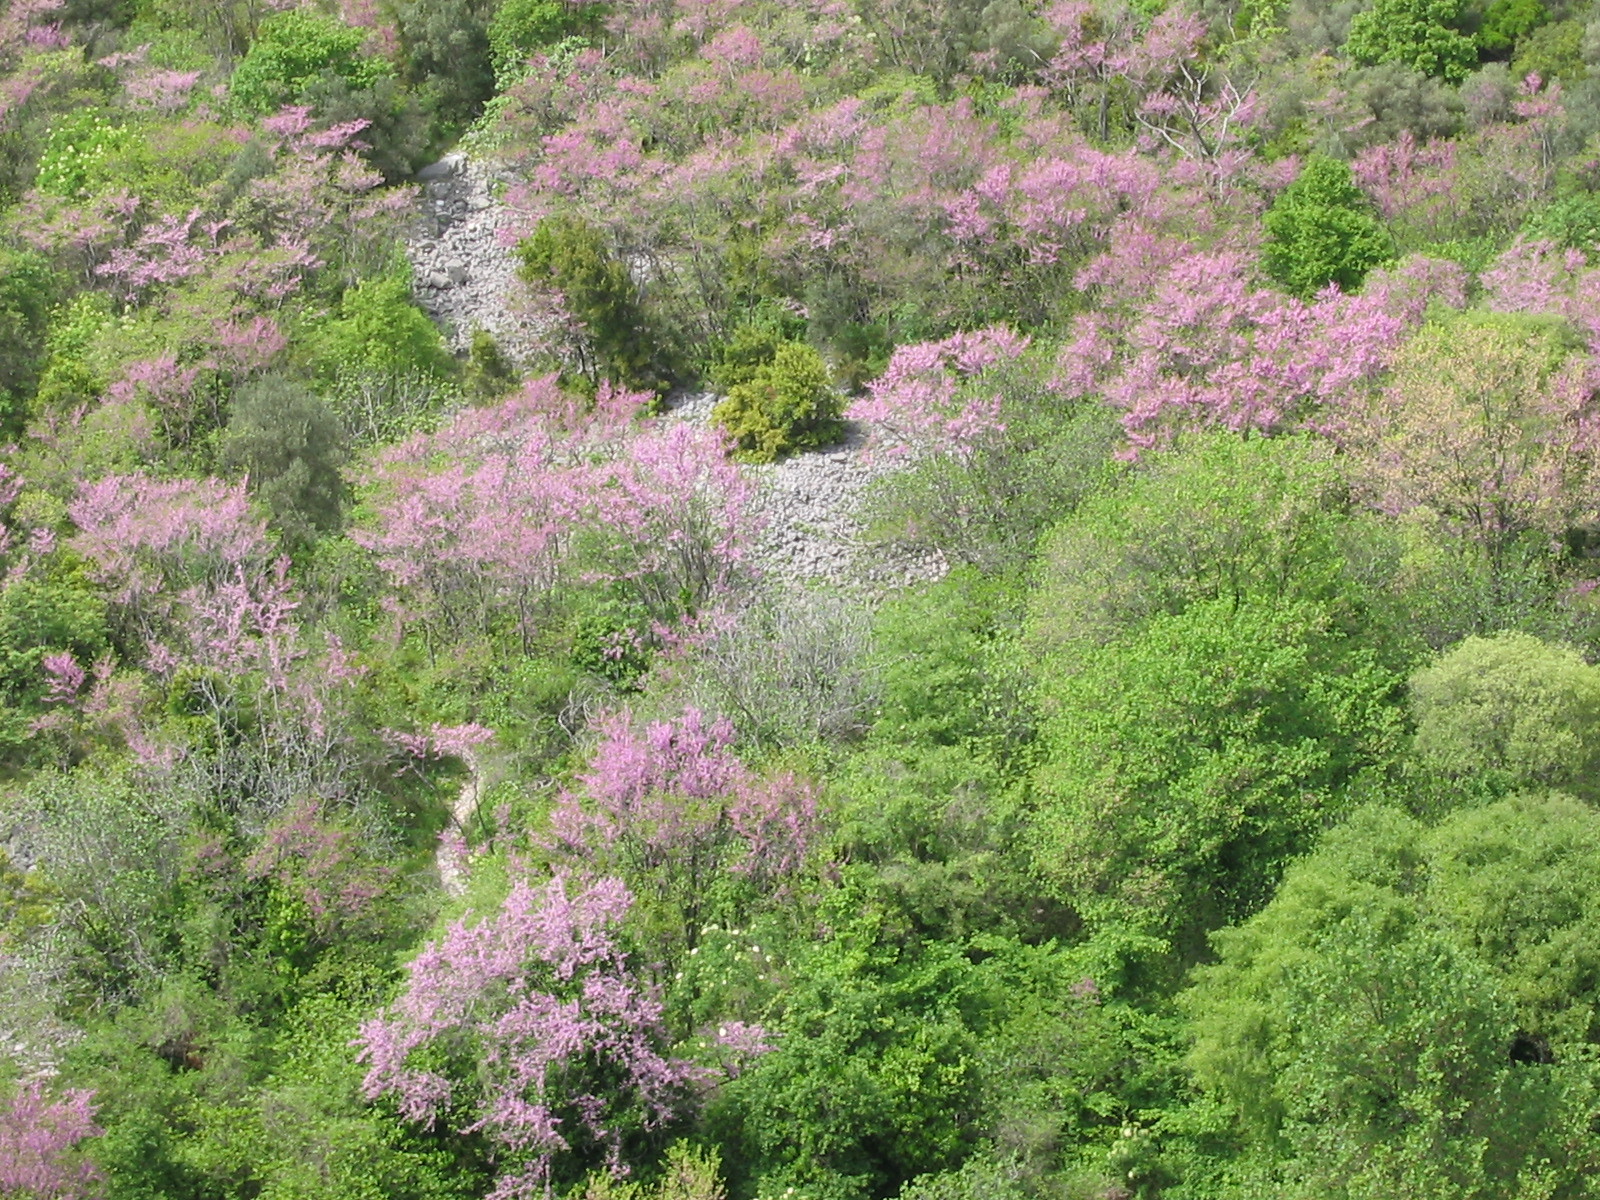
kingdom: Plantae
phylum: Tracheophyta
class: Magnoliopsida
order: Fabales
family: Fabaceae
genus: Cercis
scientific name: Cercis siliquastrum
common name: Judas tree
